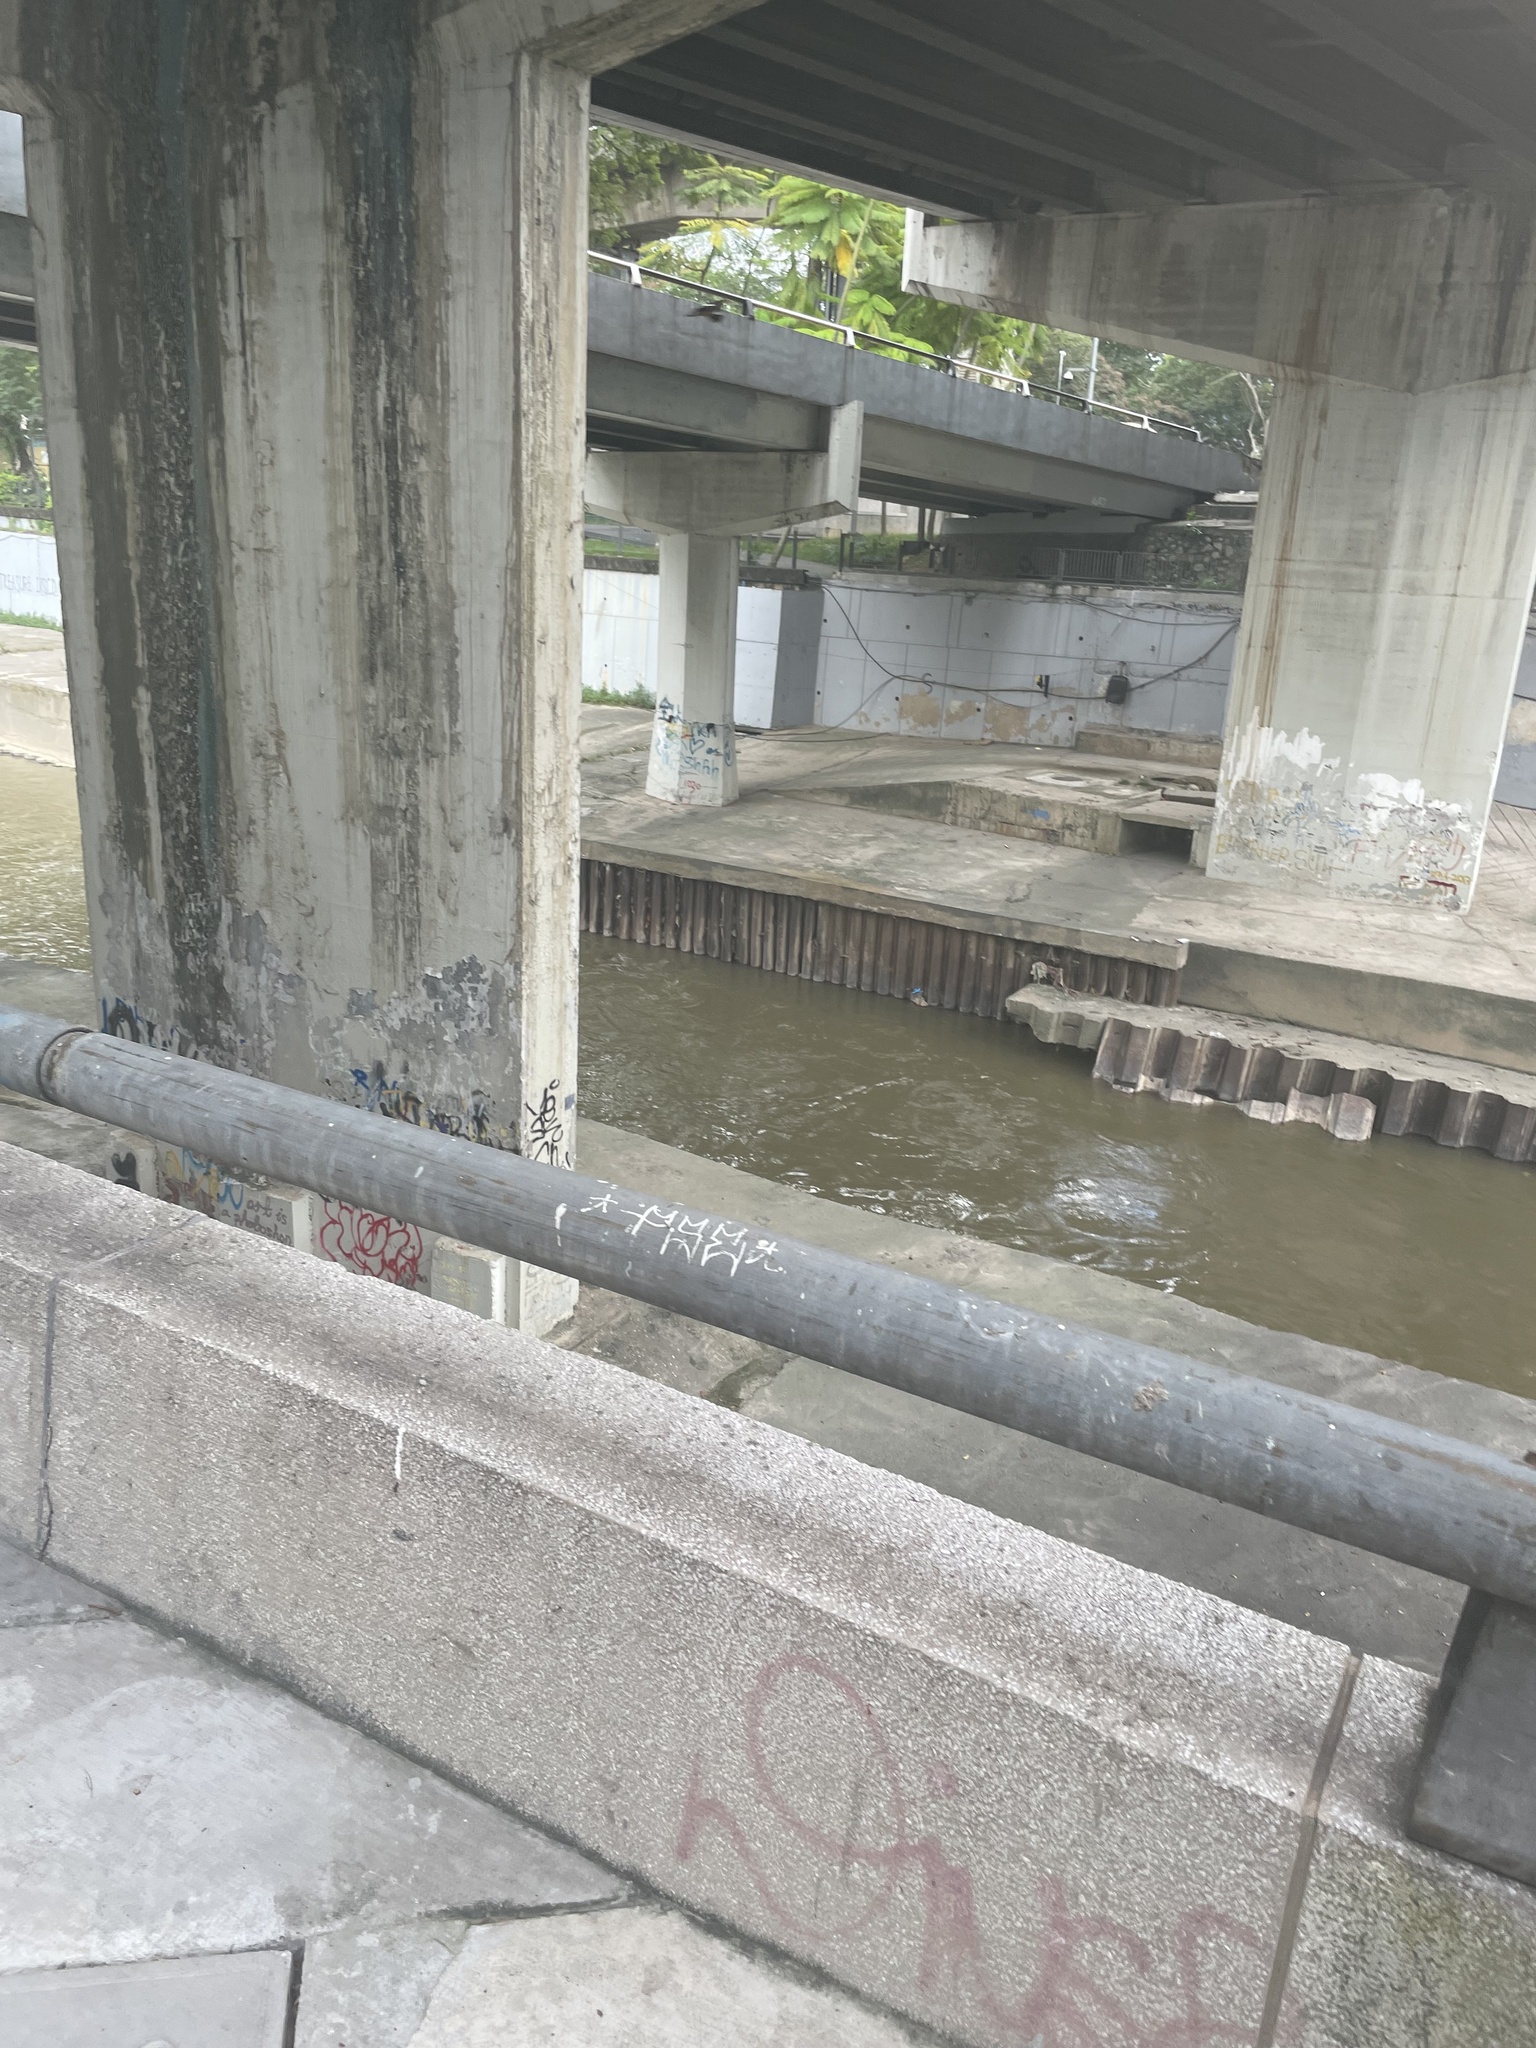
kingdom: Animalia
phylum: Chordata
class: Aves
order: Coraciiformes
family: Alcedinidae
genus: Halcyon
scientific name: Halcyon smyrnensis
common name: White-throated kingfisher
